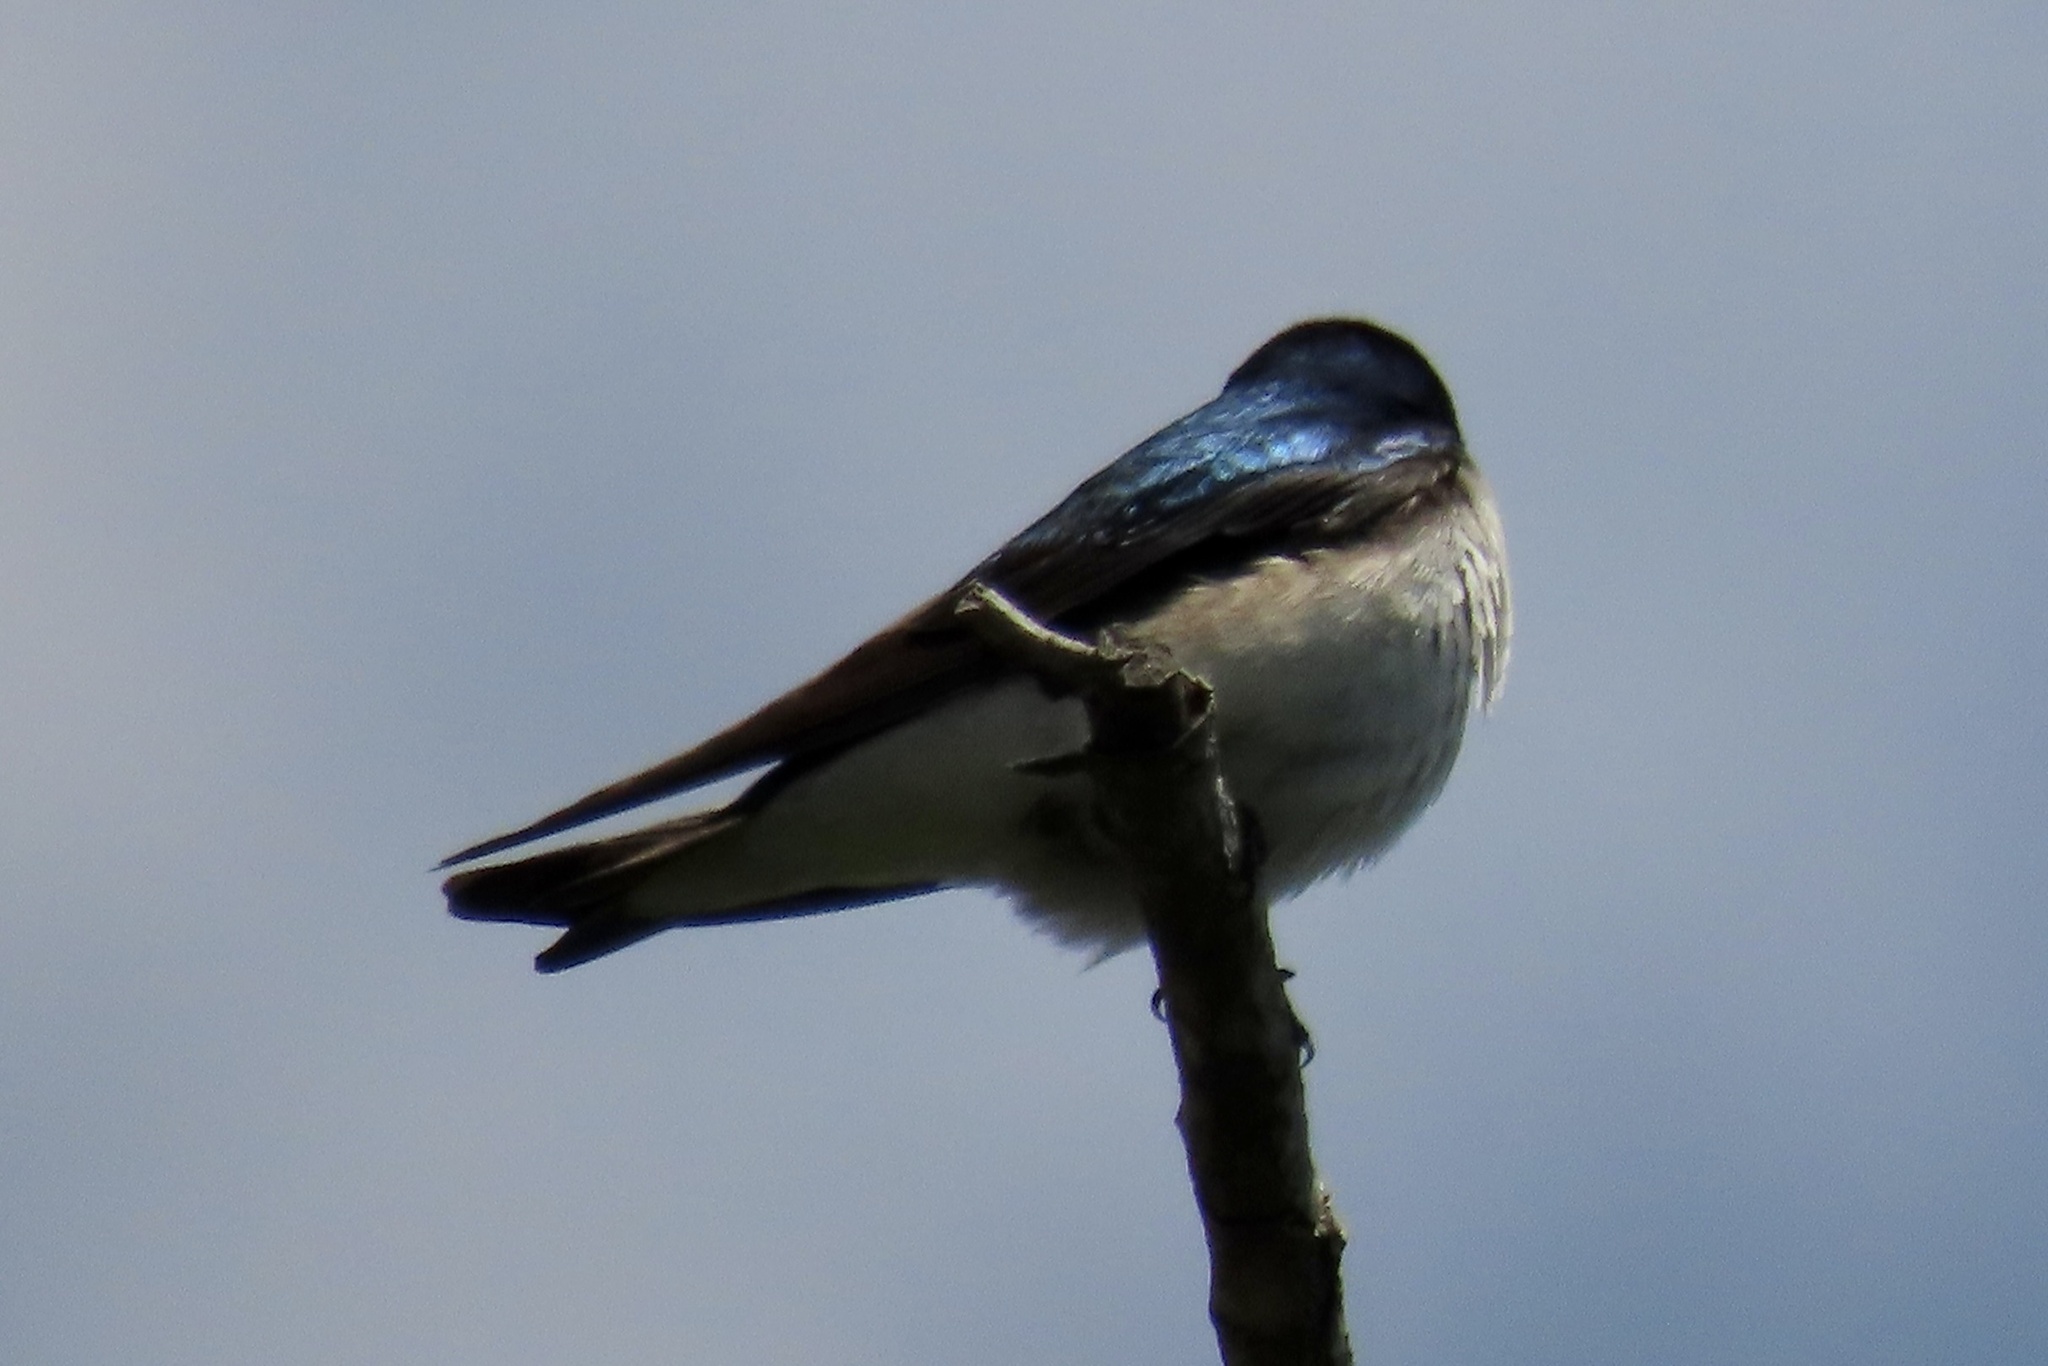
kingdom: Animalia
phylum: Chordata
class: Aves
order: Passeriformes
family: Hirundinidae
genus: Tachycineta
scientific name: Tachycineta bicolor
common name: Tree swallow
